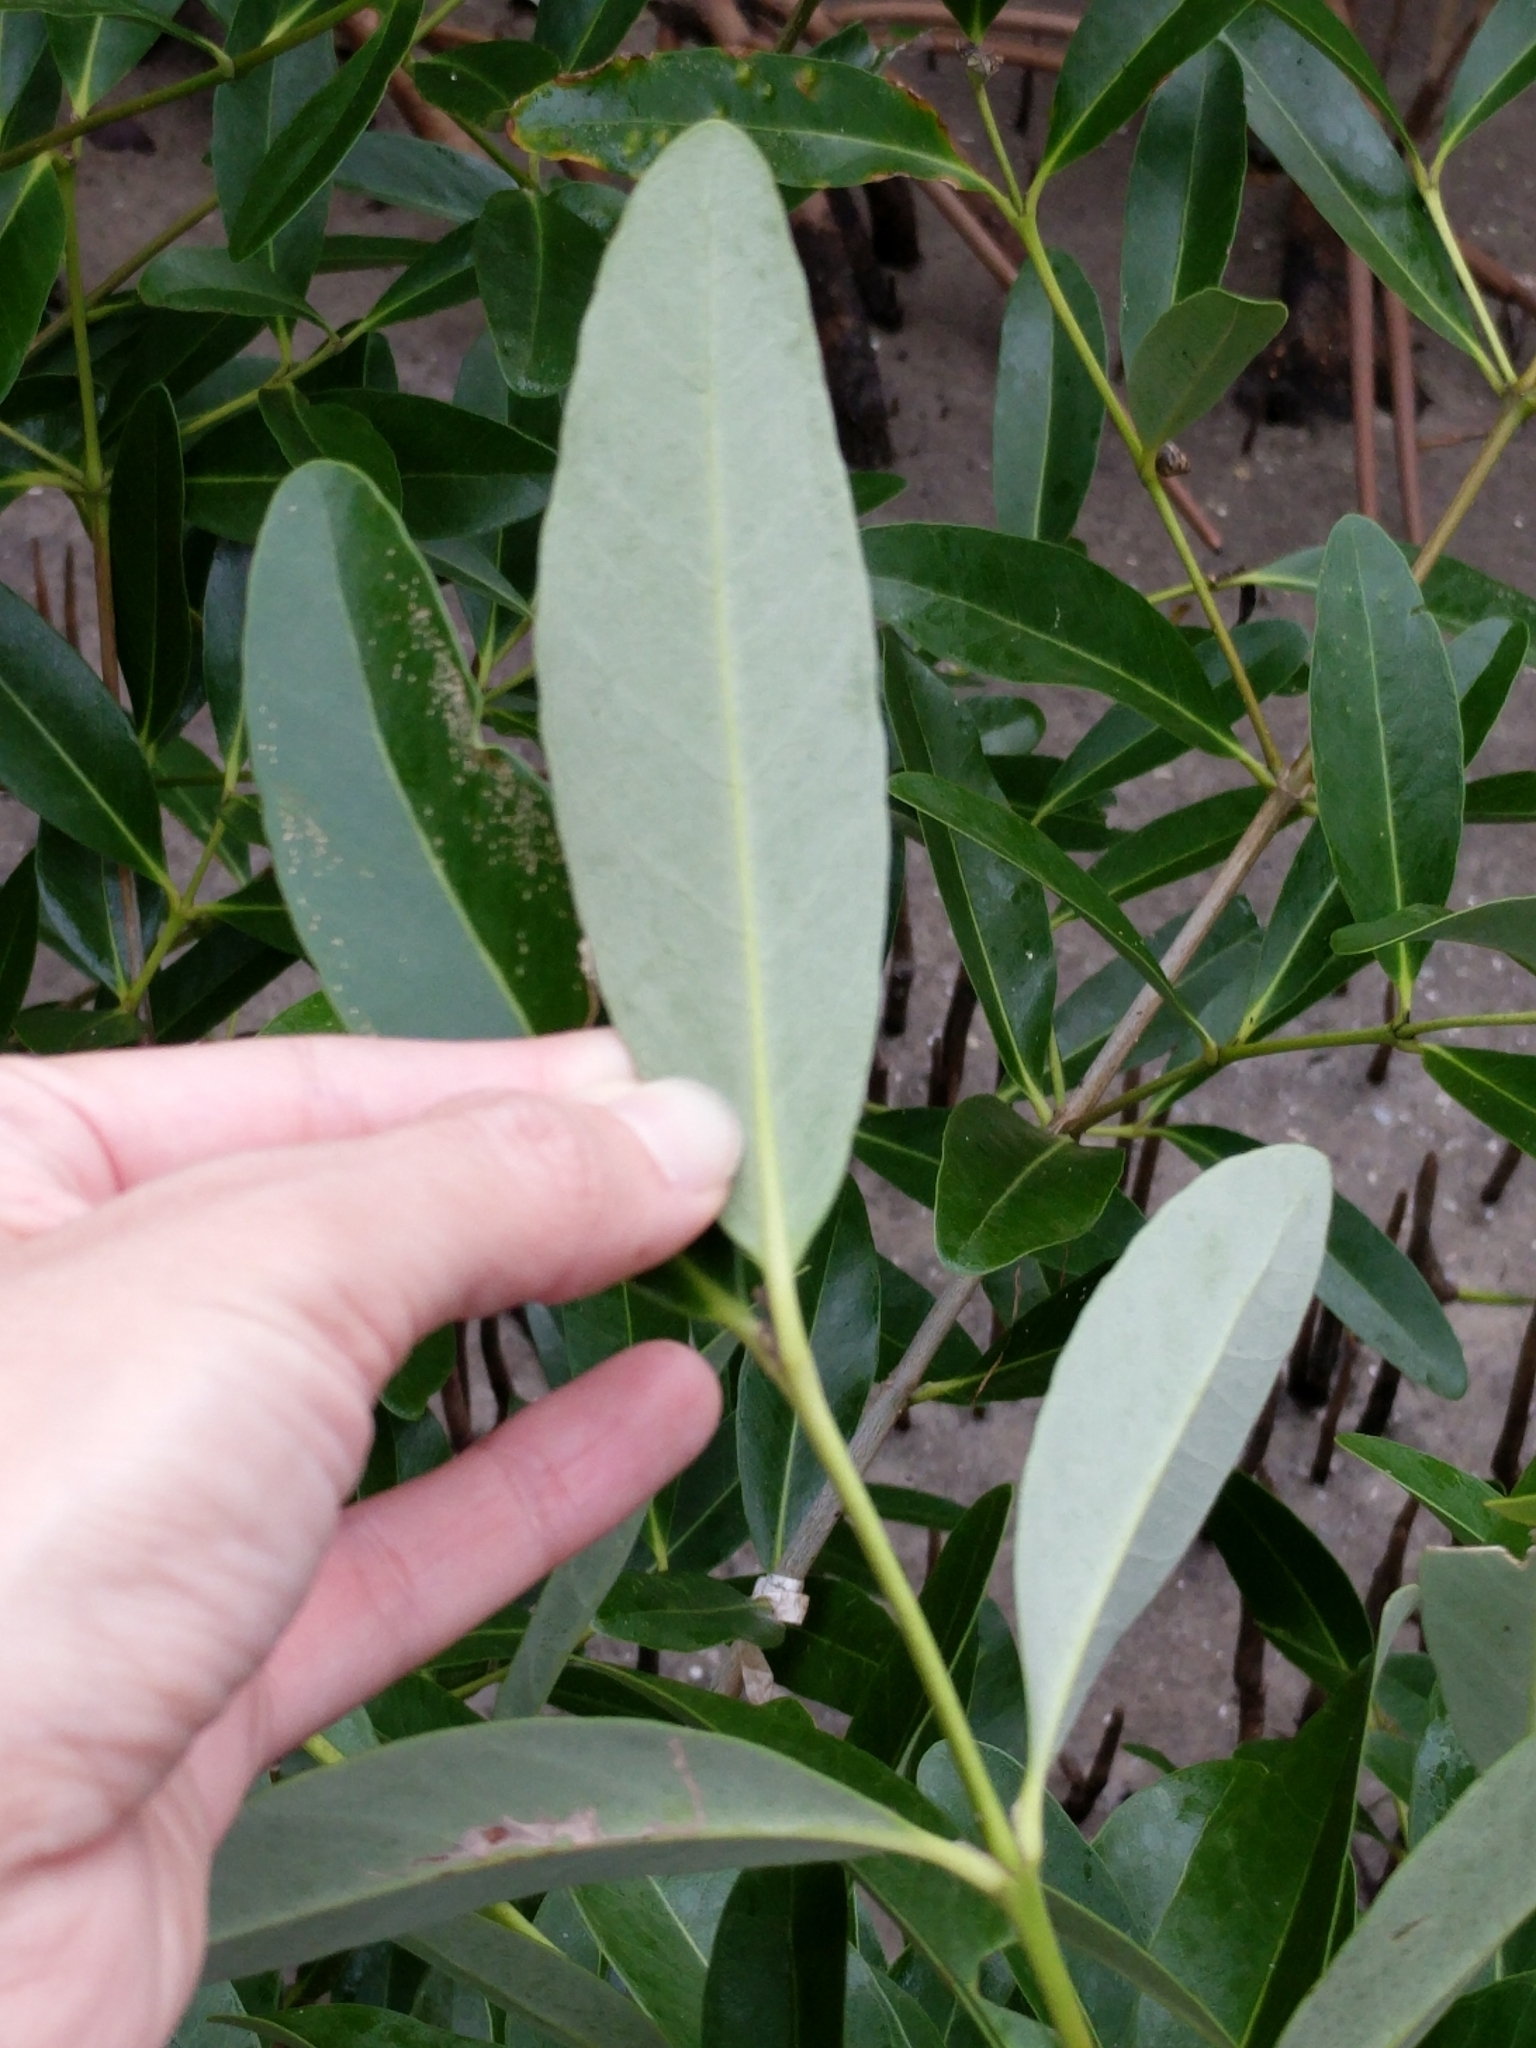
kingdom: Plantae
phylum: Tracheophyta
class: Magnoliopsida
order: Lamiales
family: Acanthaceae
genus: Avicennia
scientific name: Avicennia germinans
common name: Black mangrove
